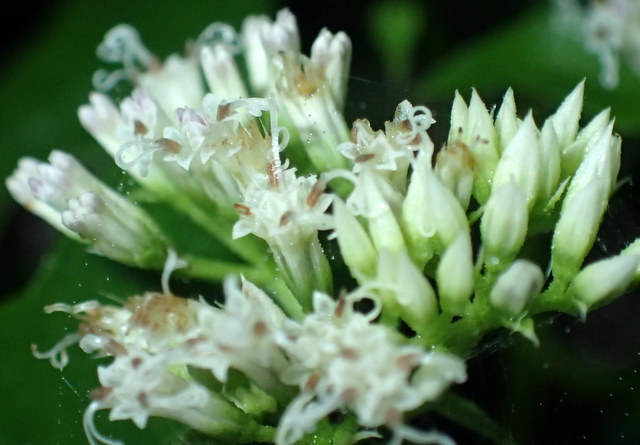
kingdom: Plantae
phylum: Tracheophyta
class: Magnoliopsida
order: Asterales
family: Asteraceae
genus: Mikania
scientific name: Mikania scandens
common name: Climbing hempvine
